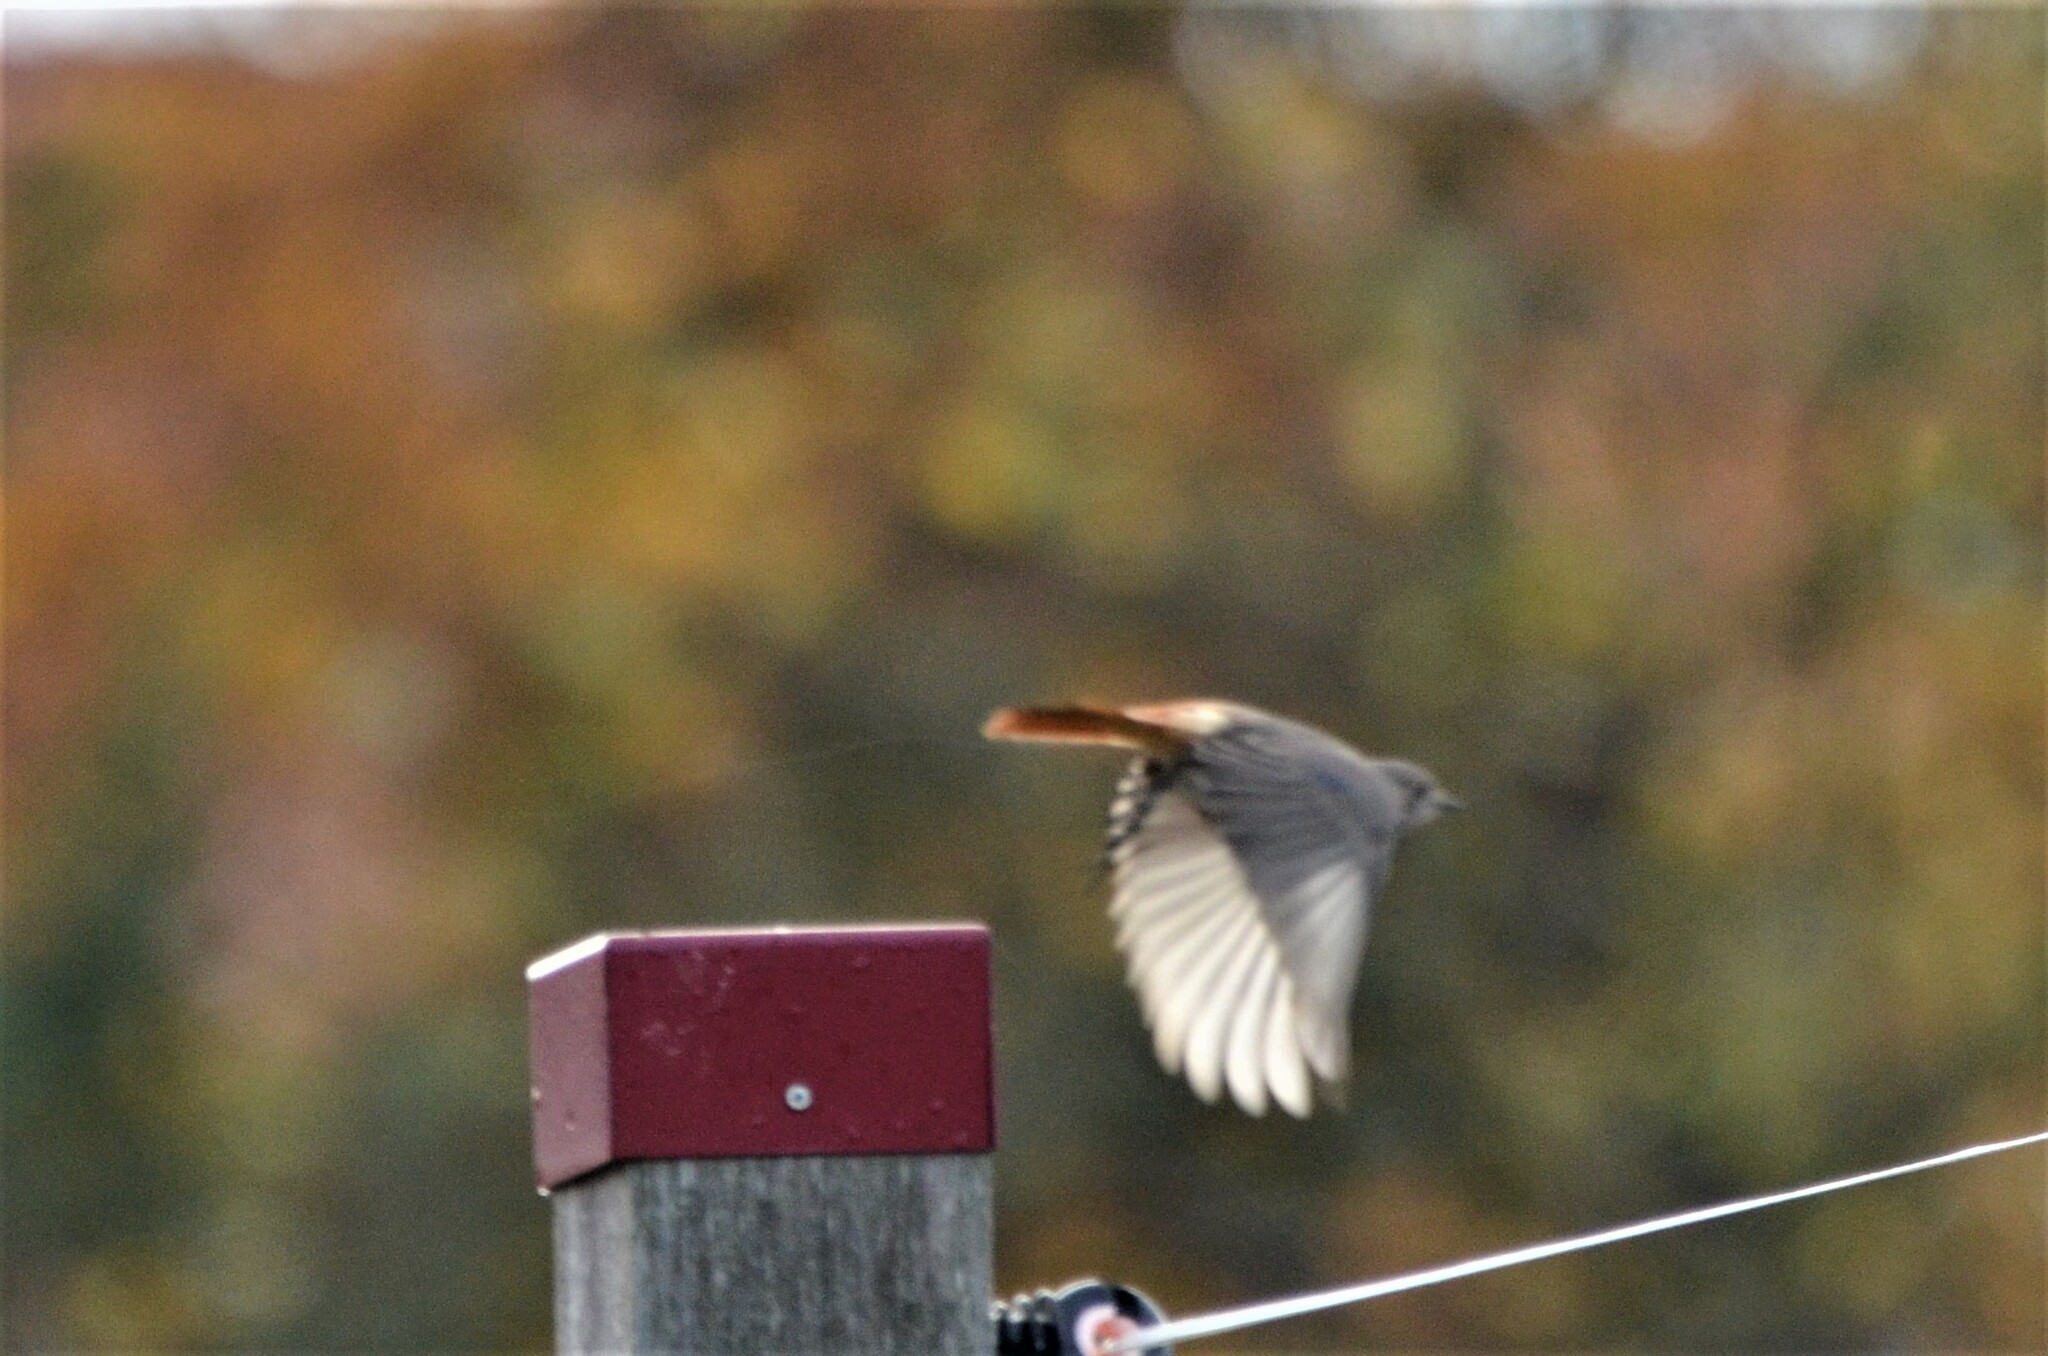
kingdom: Animalia
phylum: Chordata
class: Aves
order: Passeriformes
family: Muscicapidae
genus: Phoenicurus
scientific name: Phoenicurus ochruros
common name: Black redstart
